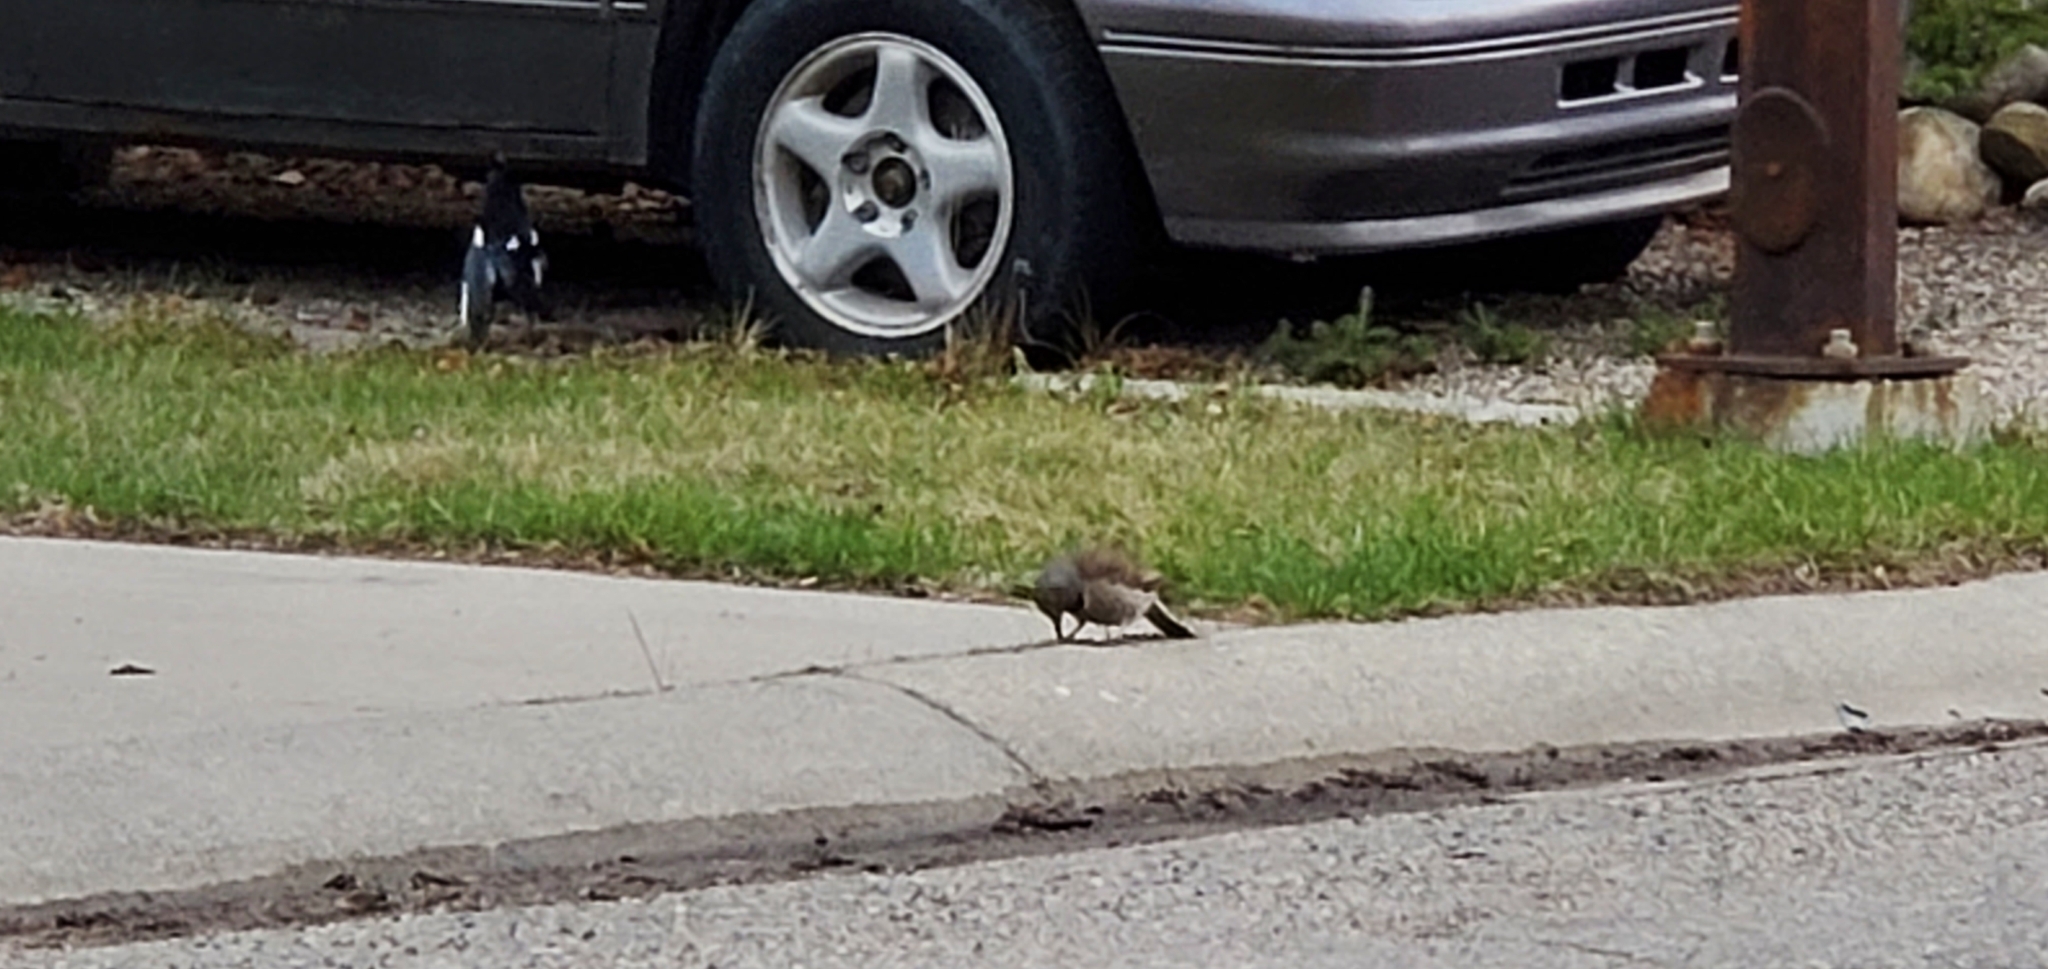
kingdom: Animalia
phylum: Chordata
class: Aves
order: Piciformes
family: Picidae
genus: Colaptes
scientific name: Colaptes auratus
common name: Northern flicker
